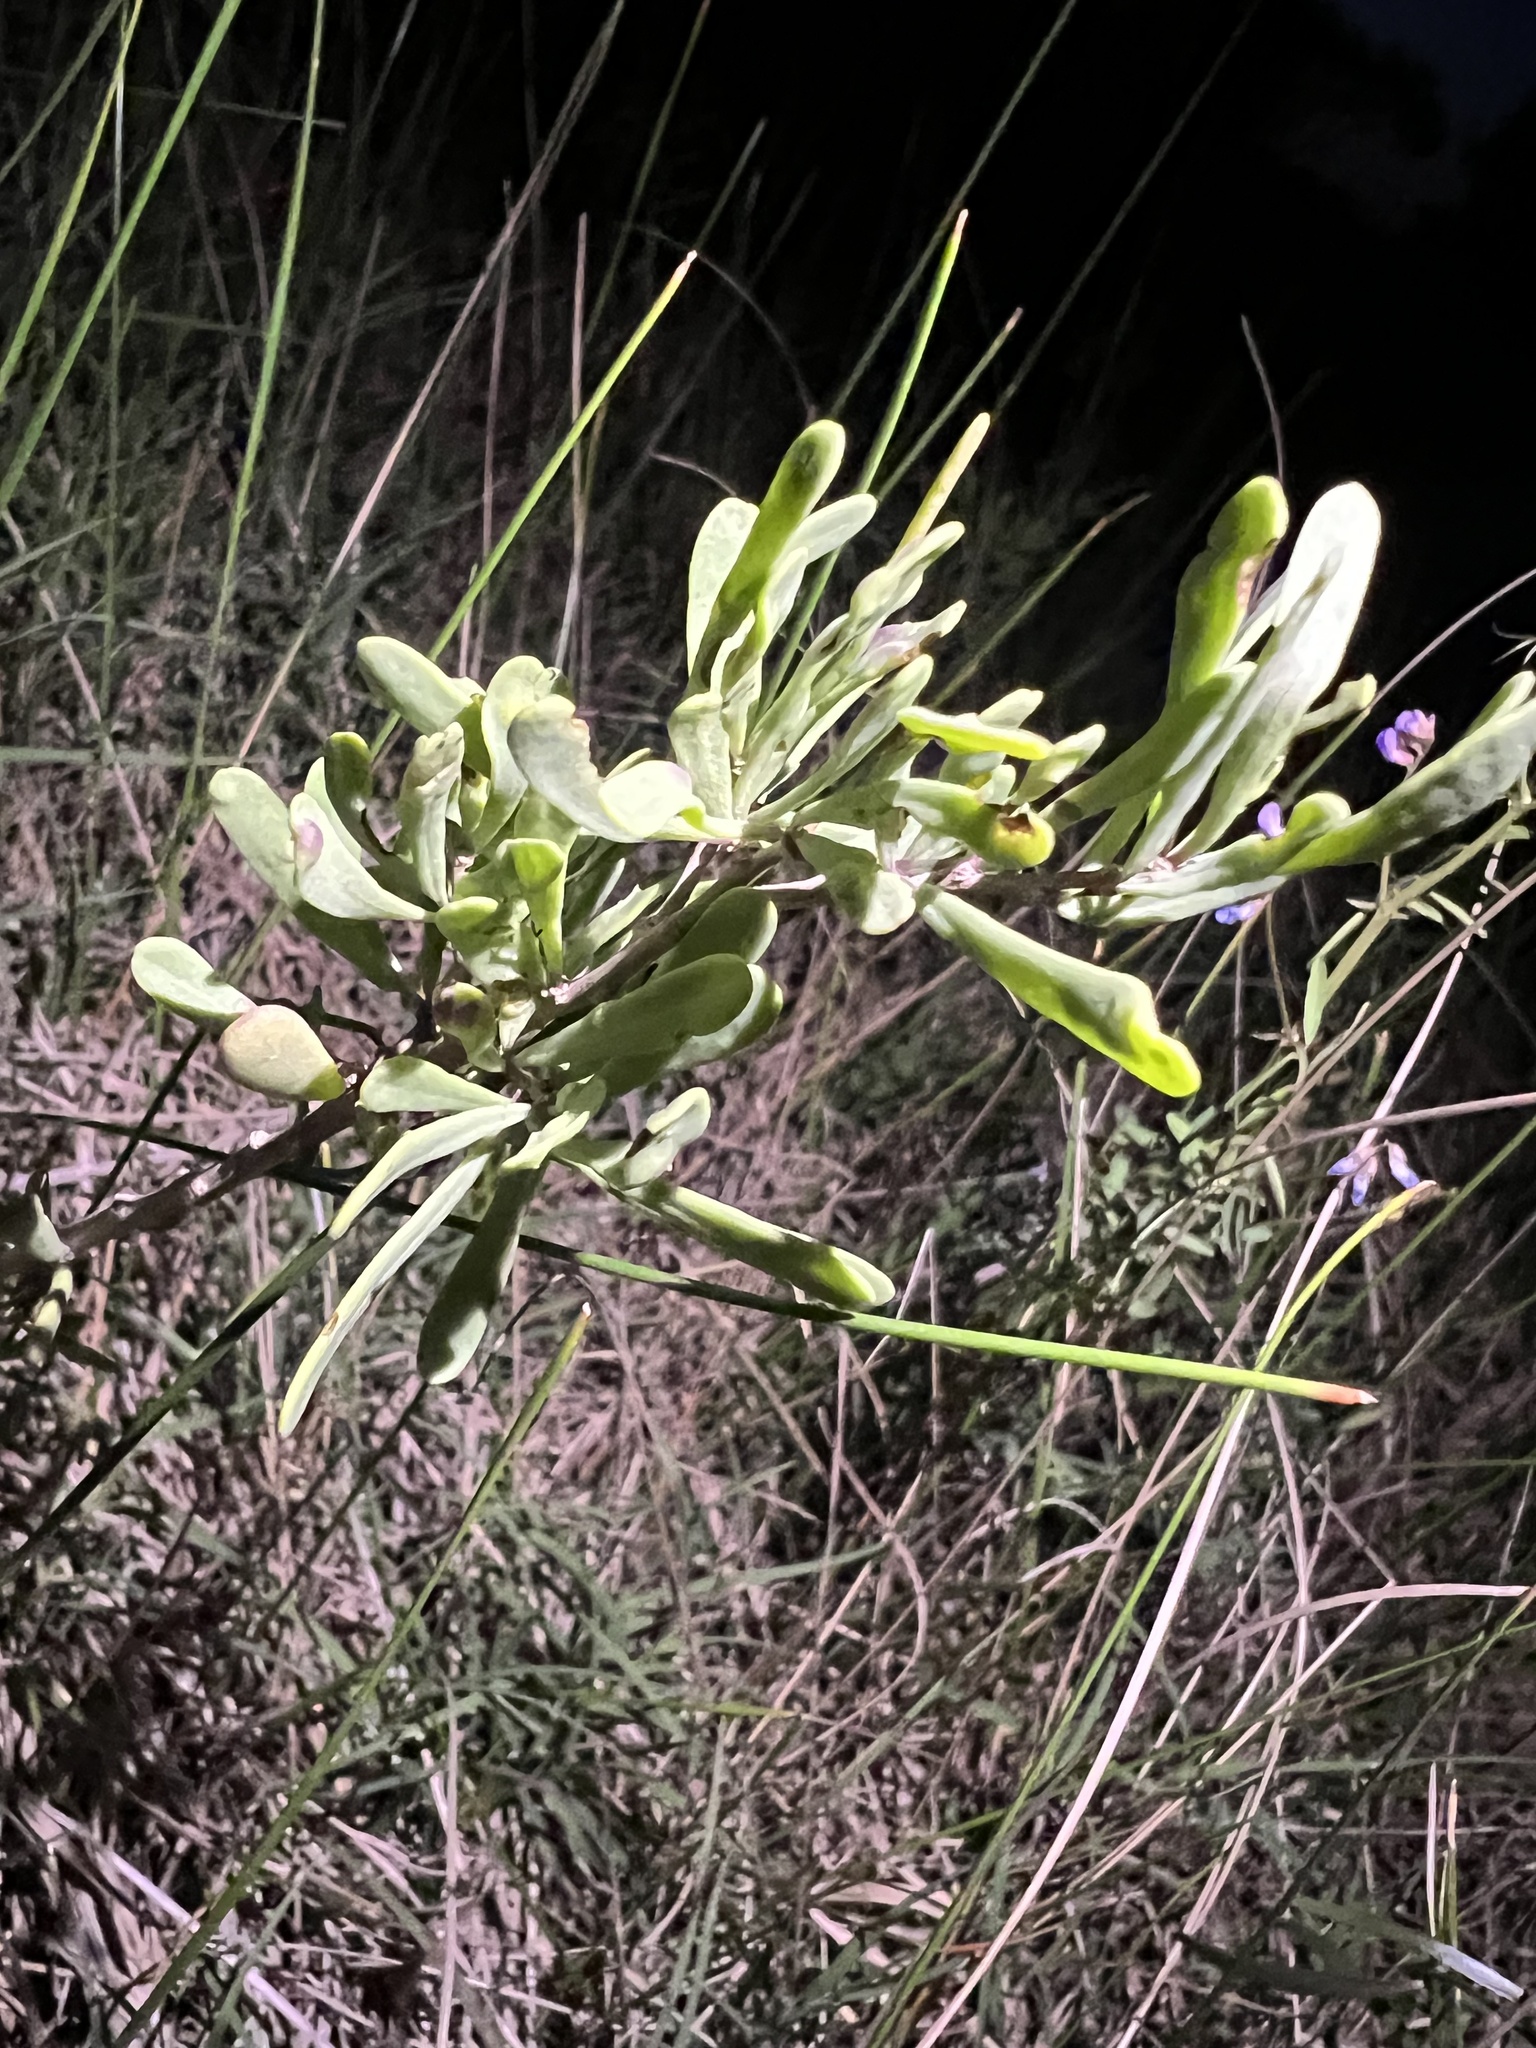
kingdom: Plantae
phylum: Tracheophyta
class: Magnoliopsida
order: Solanales
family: Solanaceae
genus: Lycium
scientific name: Lycium carolinianum
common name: Christmasberry
